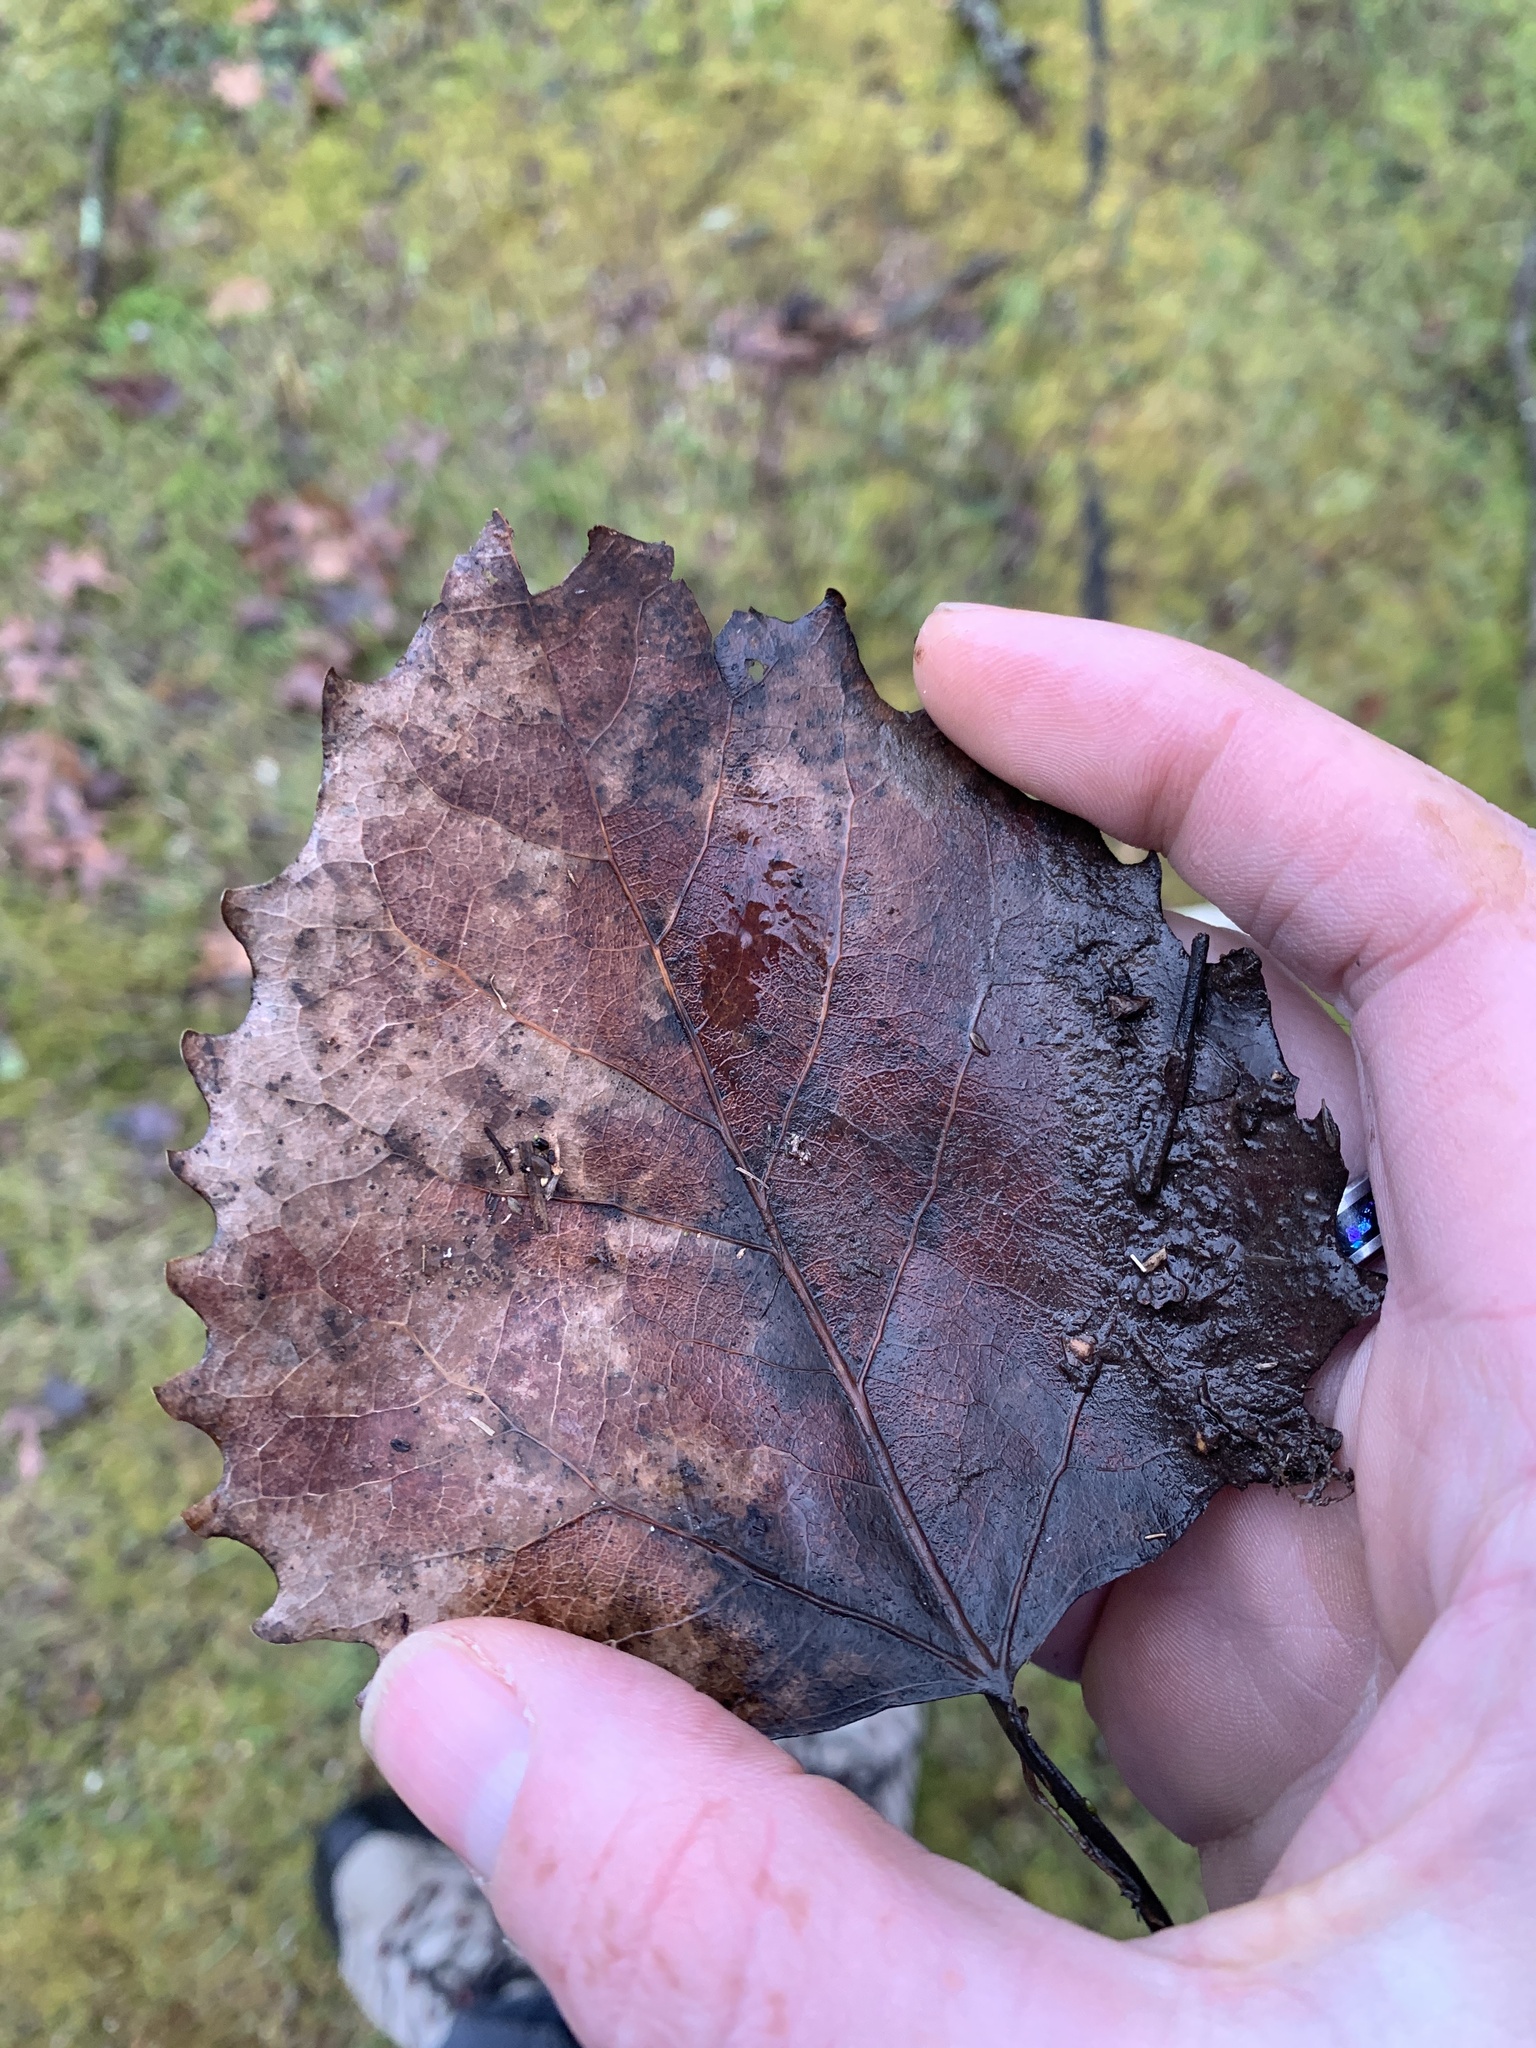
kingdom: Plantae
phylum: Tracheophyta
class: Magnoliopsida
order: Malpighiales
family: Salicaceae
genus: Populus
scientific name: Populus grandidentata
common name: Bigtooth aspen
